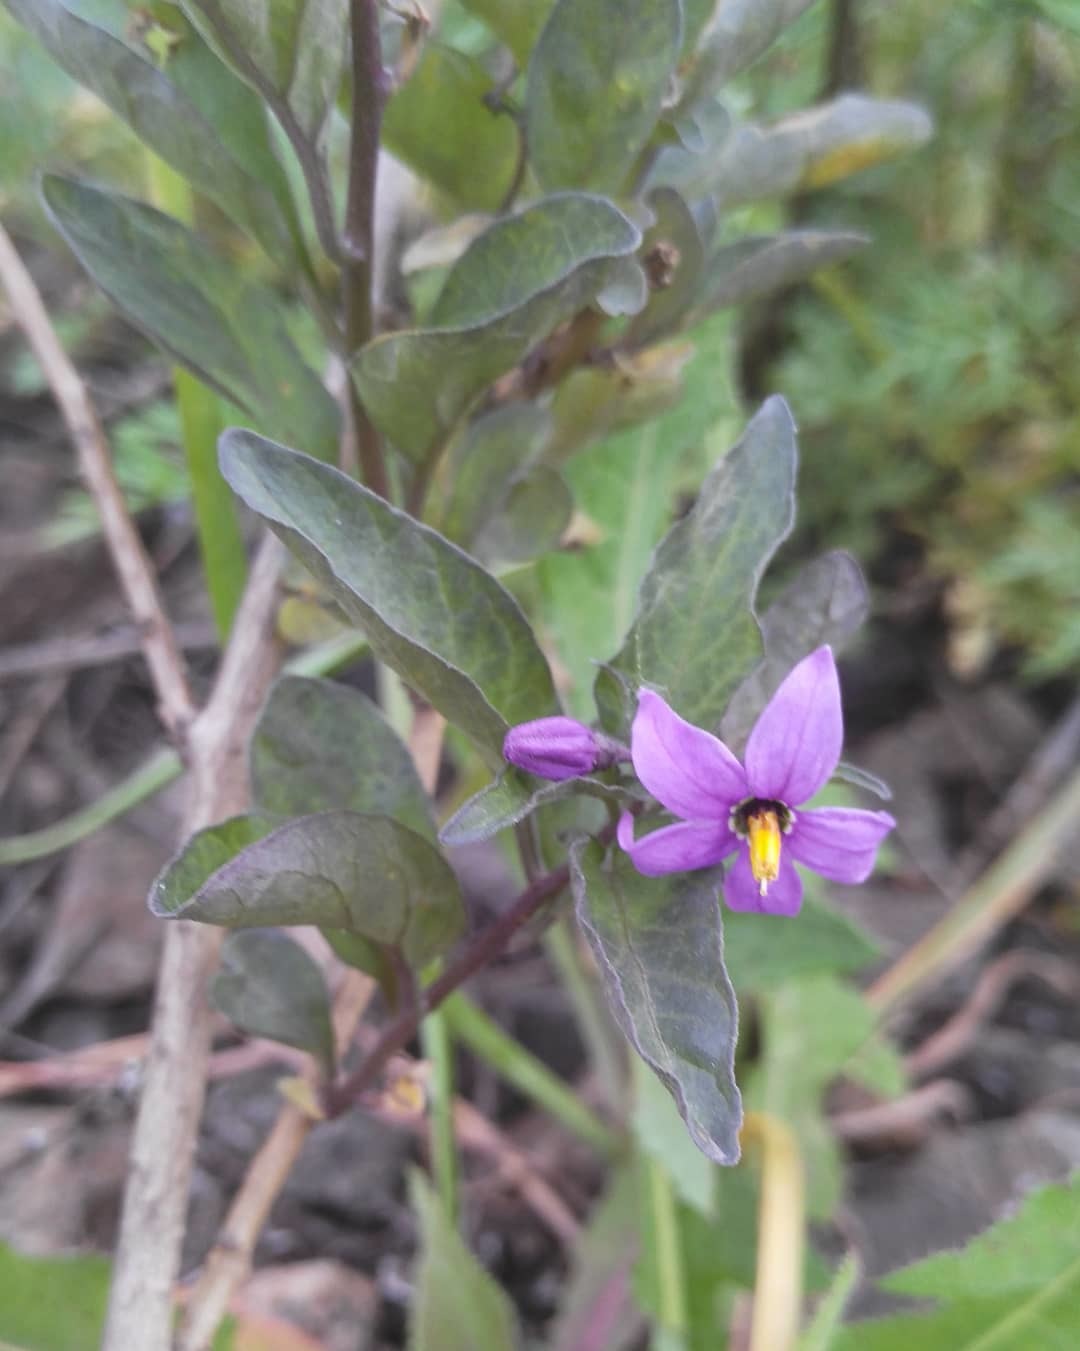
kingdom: Plantae
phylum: Tracheophyta
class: Magnoliopsida
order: Solanales
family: Solanaceae
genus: Solanum
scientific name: Solanum dulcamara
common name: Climbing nightshade
